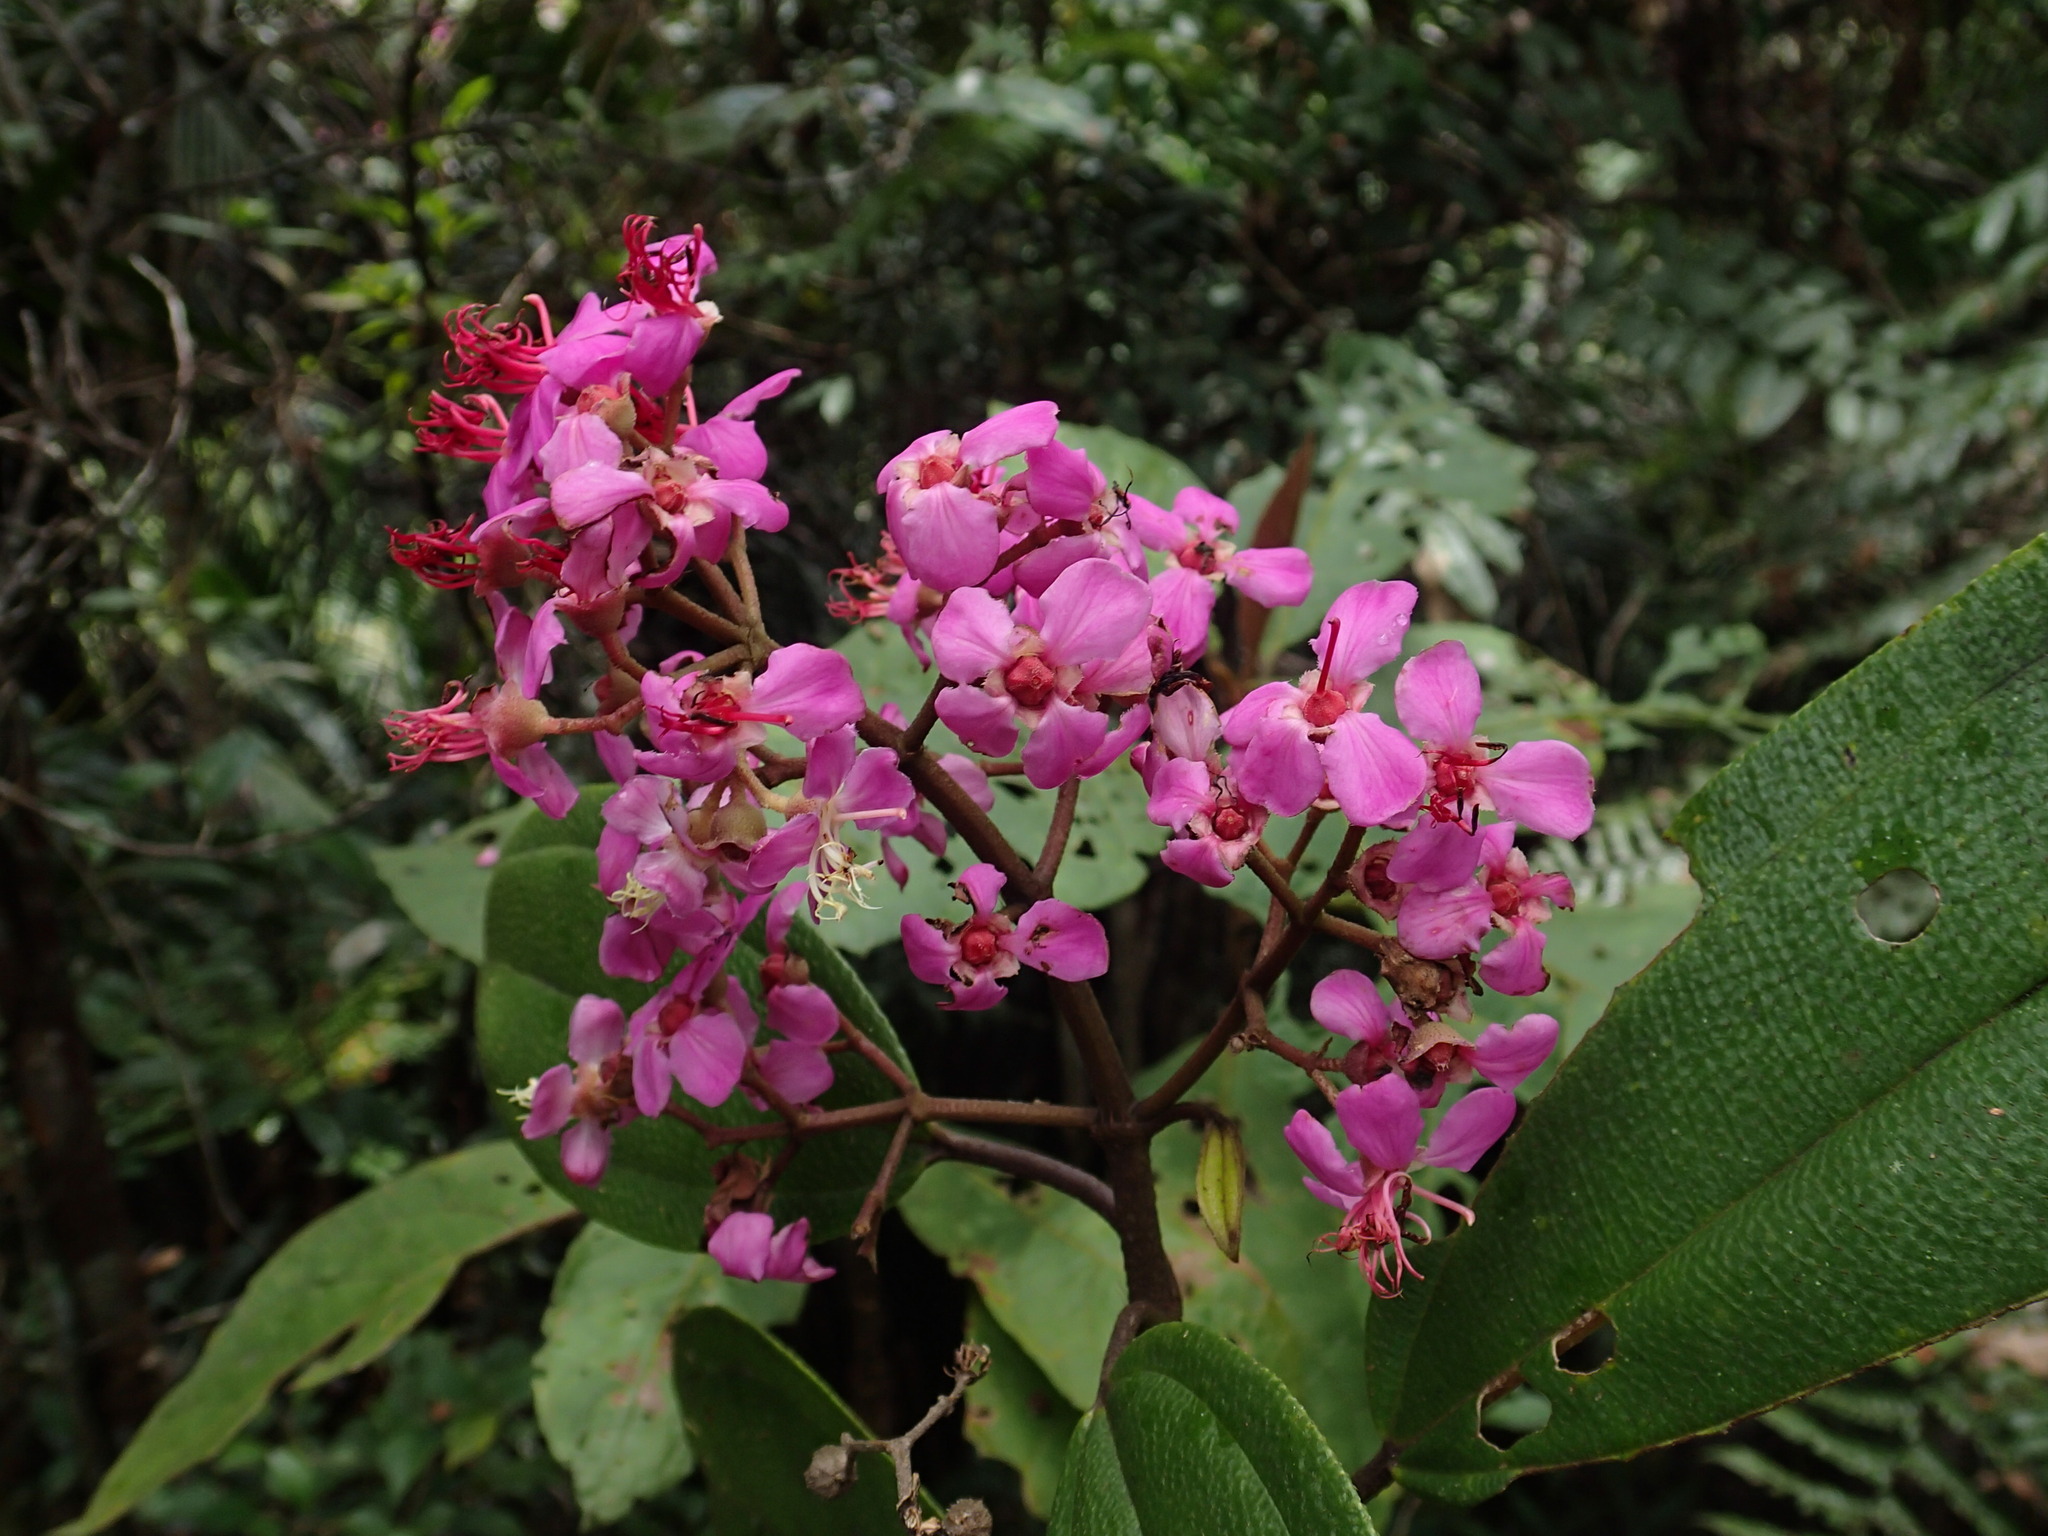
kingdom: Plantae
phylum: Tracheophyta
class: Magnoliopsida
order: Myrtales
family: Melastomataceae
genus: Dichaetanthera
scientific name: Dichaetanthera cordifolia
